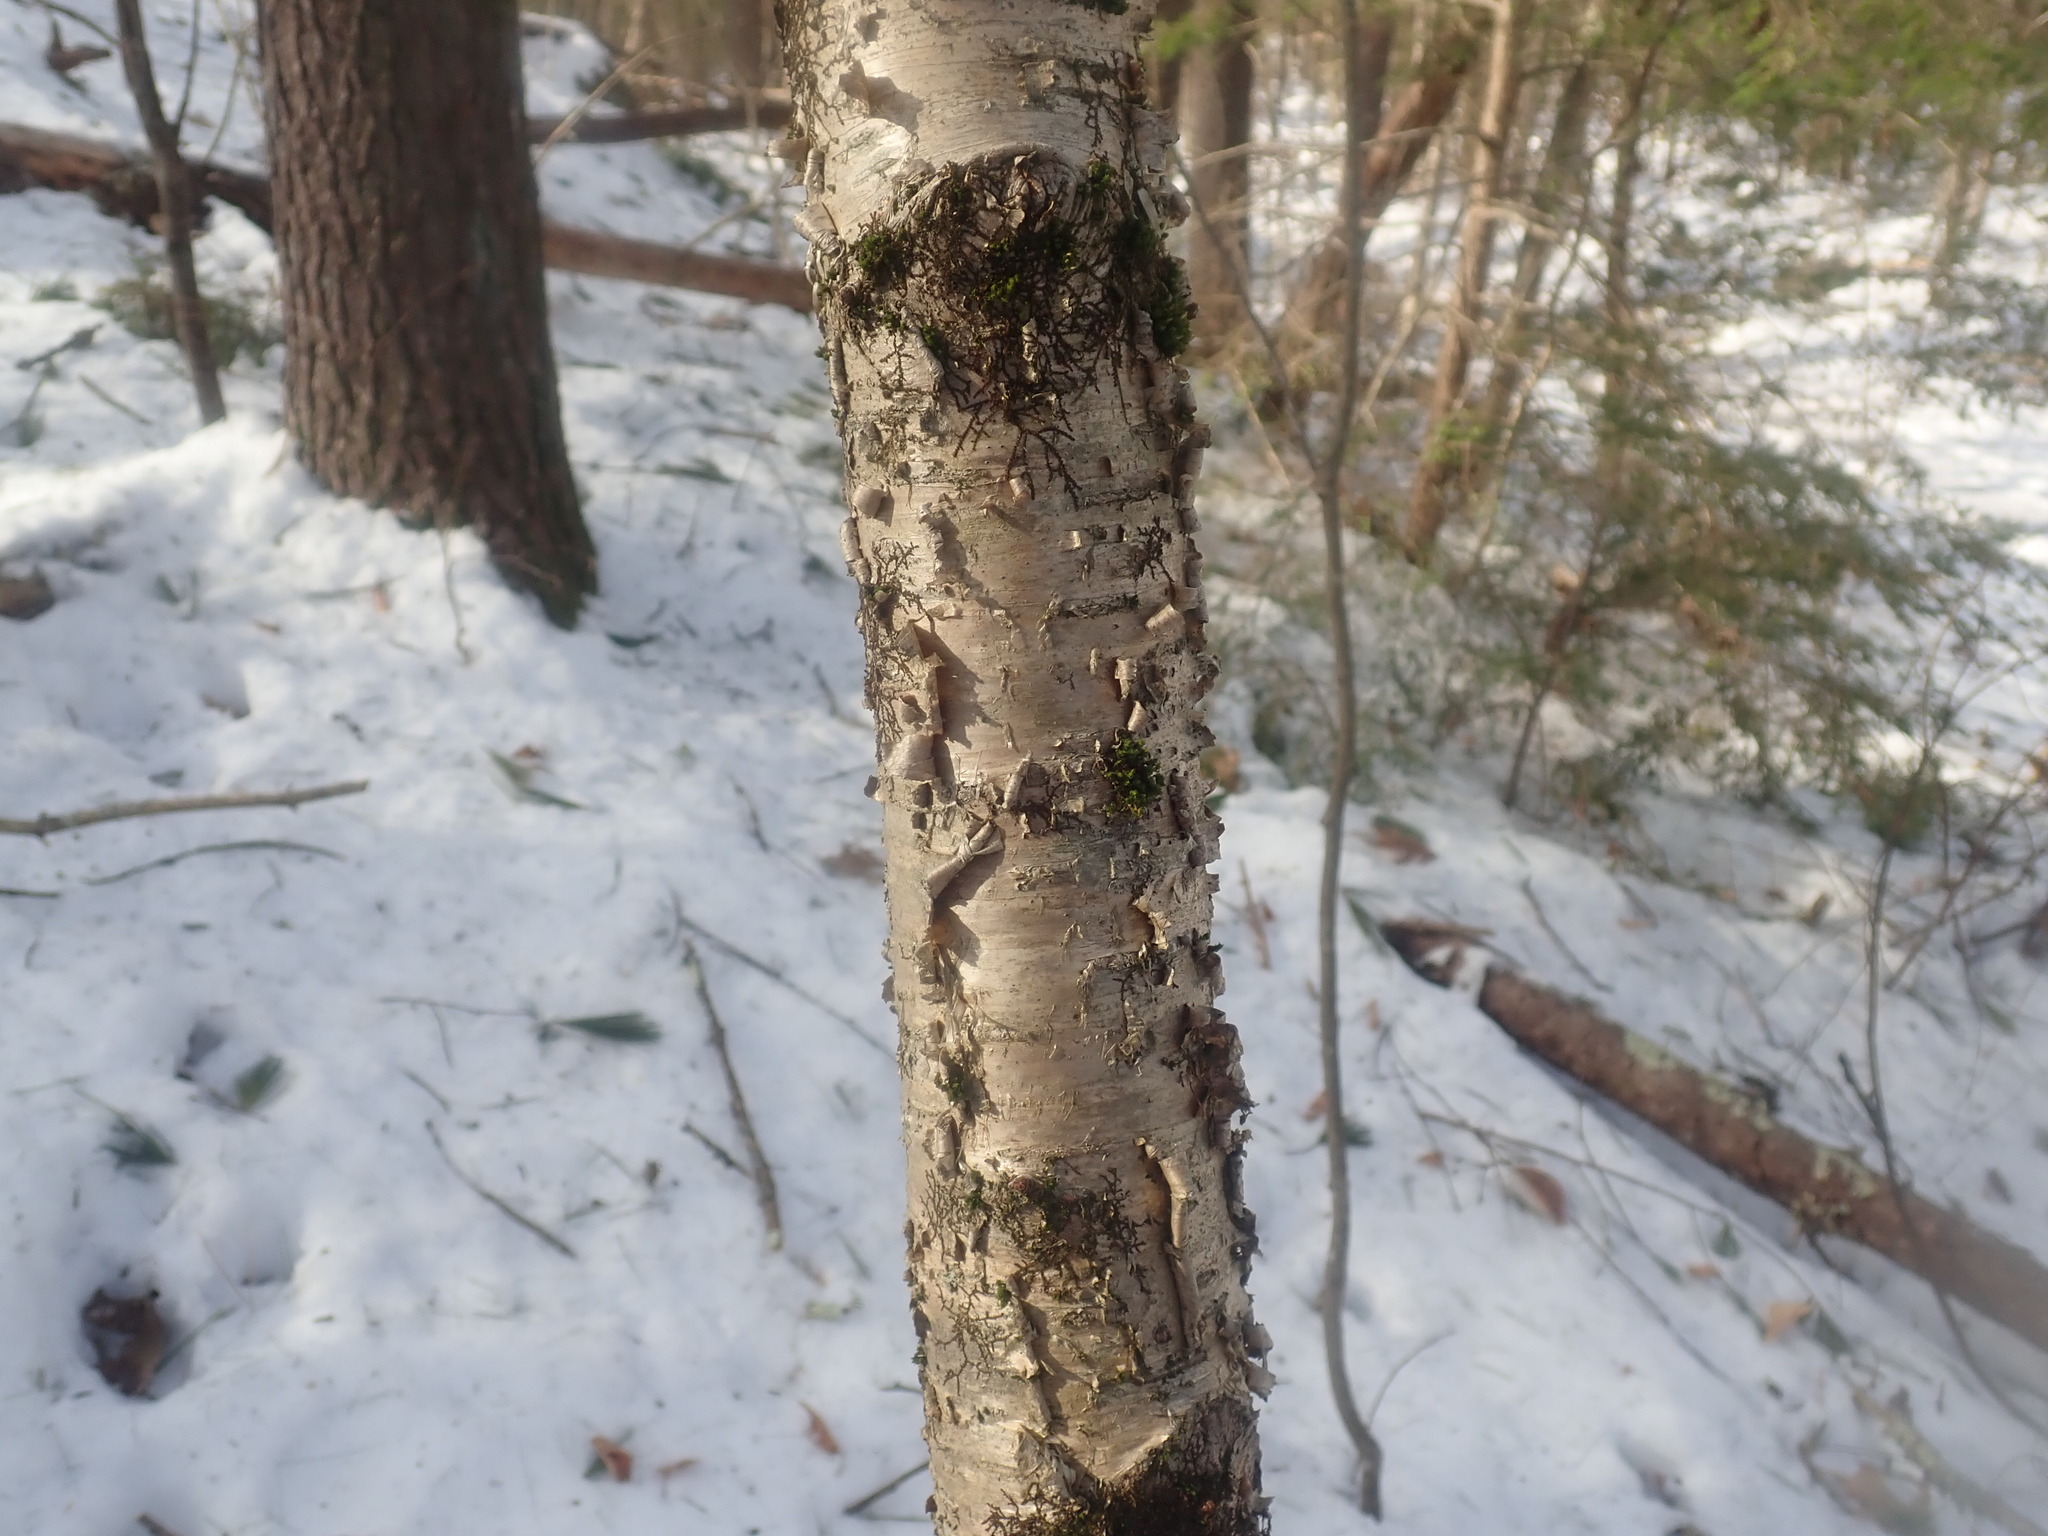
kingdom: Plantae
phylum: Tracheophyta
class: Magnoliopsida
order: Fagales
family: Betulaceae
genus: Betula
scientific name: Betula alleghaniensis
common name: Yellow birch
